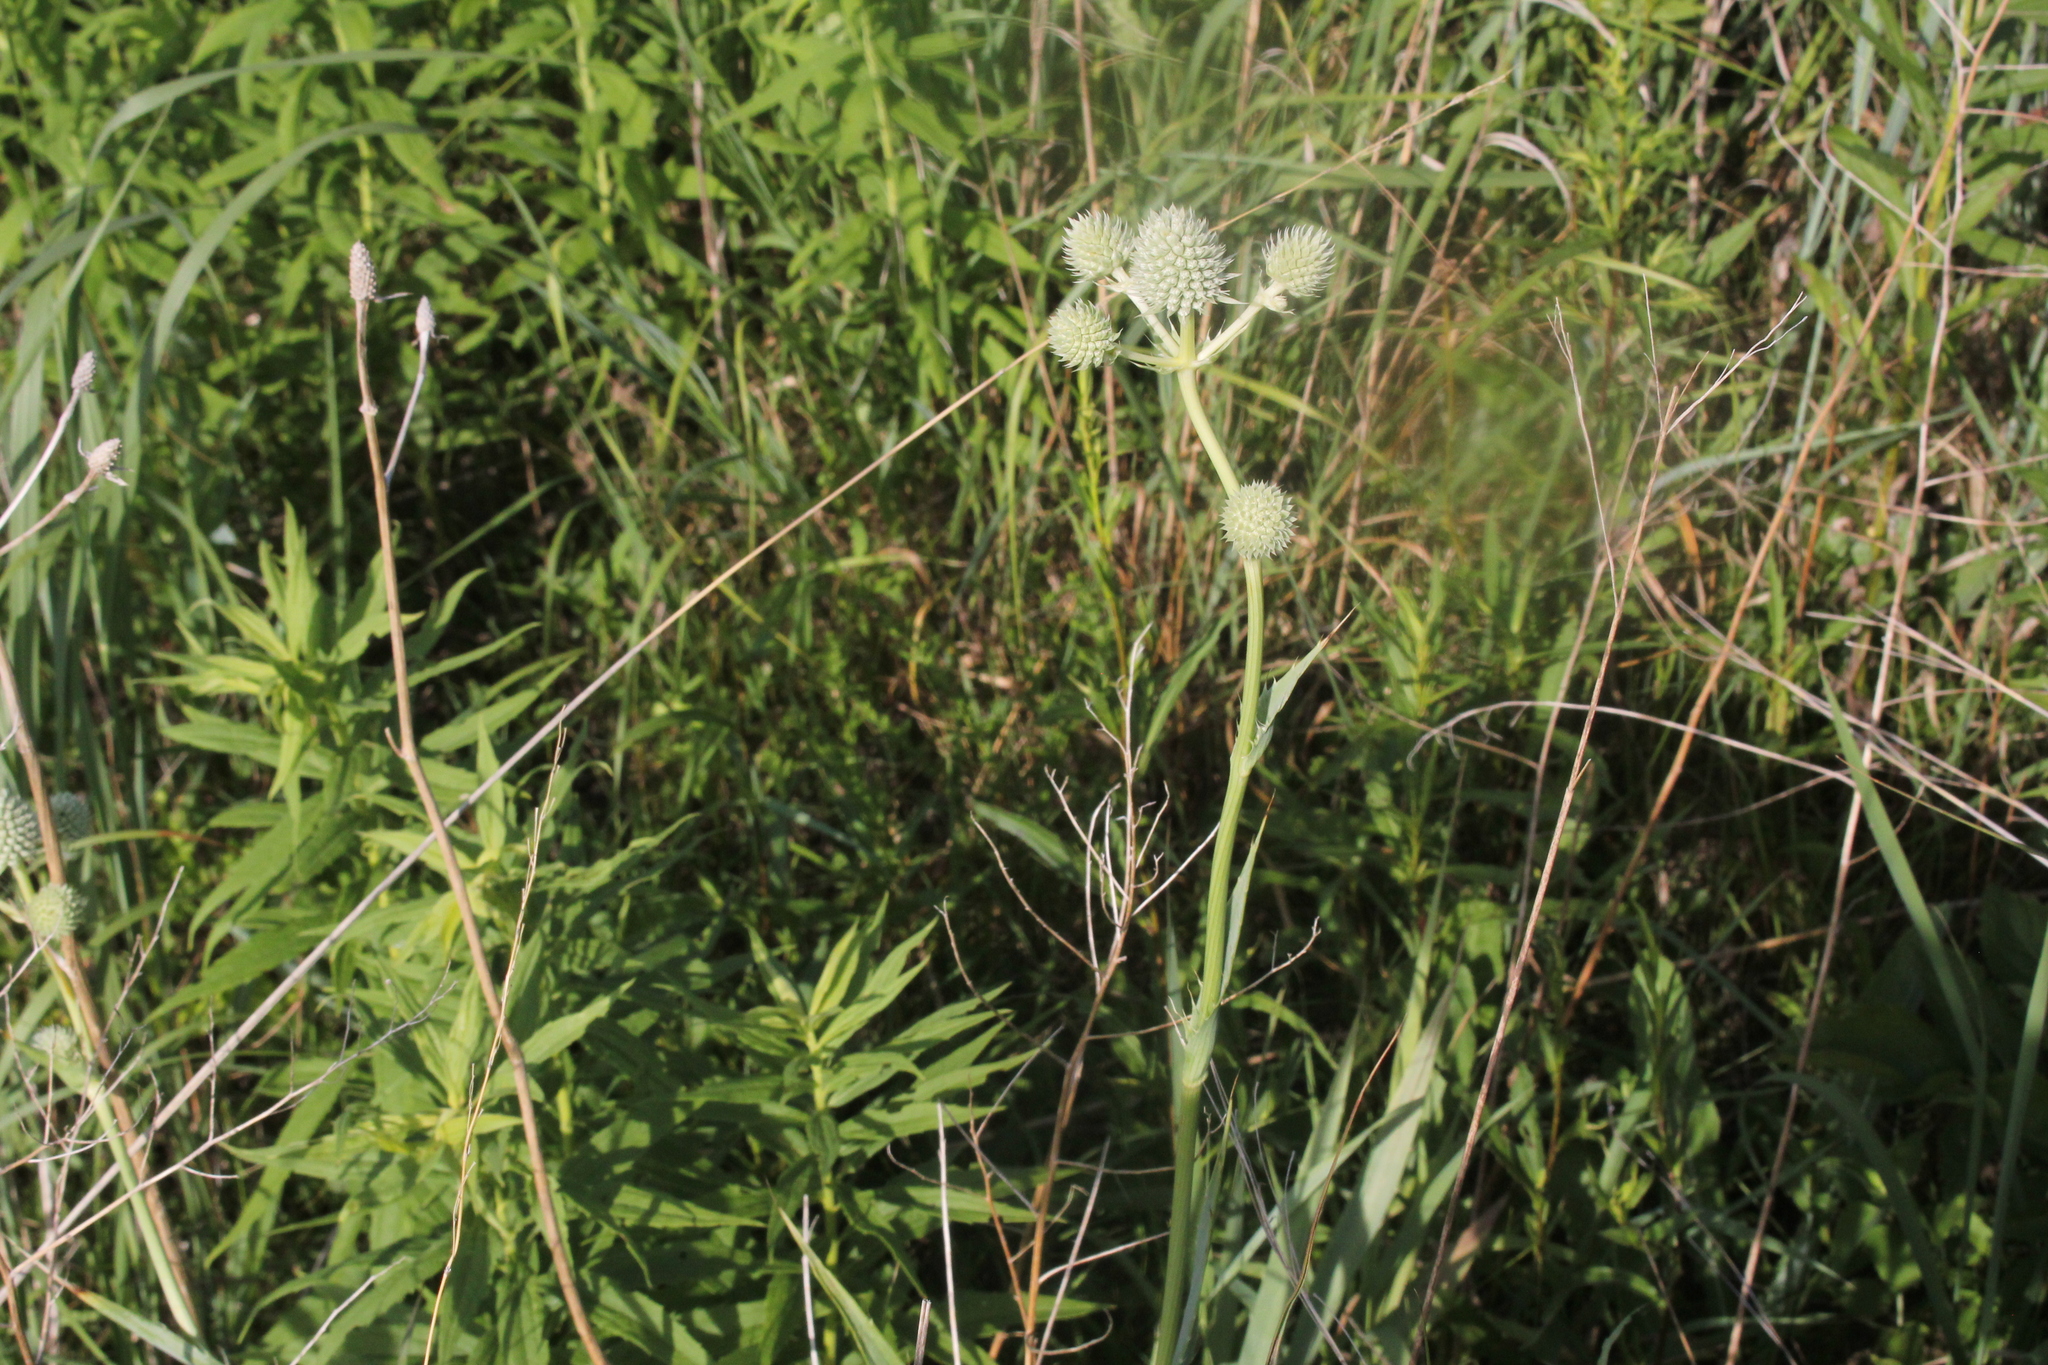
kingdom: Plantae
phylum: Tracheophyta
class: Magnoliopsida
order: Apiales
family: Apiaceae
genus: Eryngium
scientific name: Eryngium yuccifolium
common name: Button eryngo
